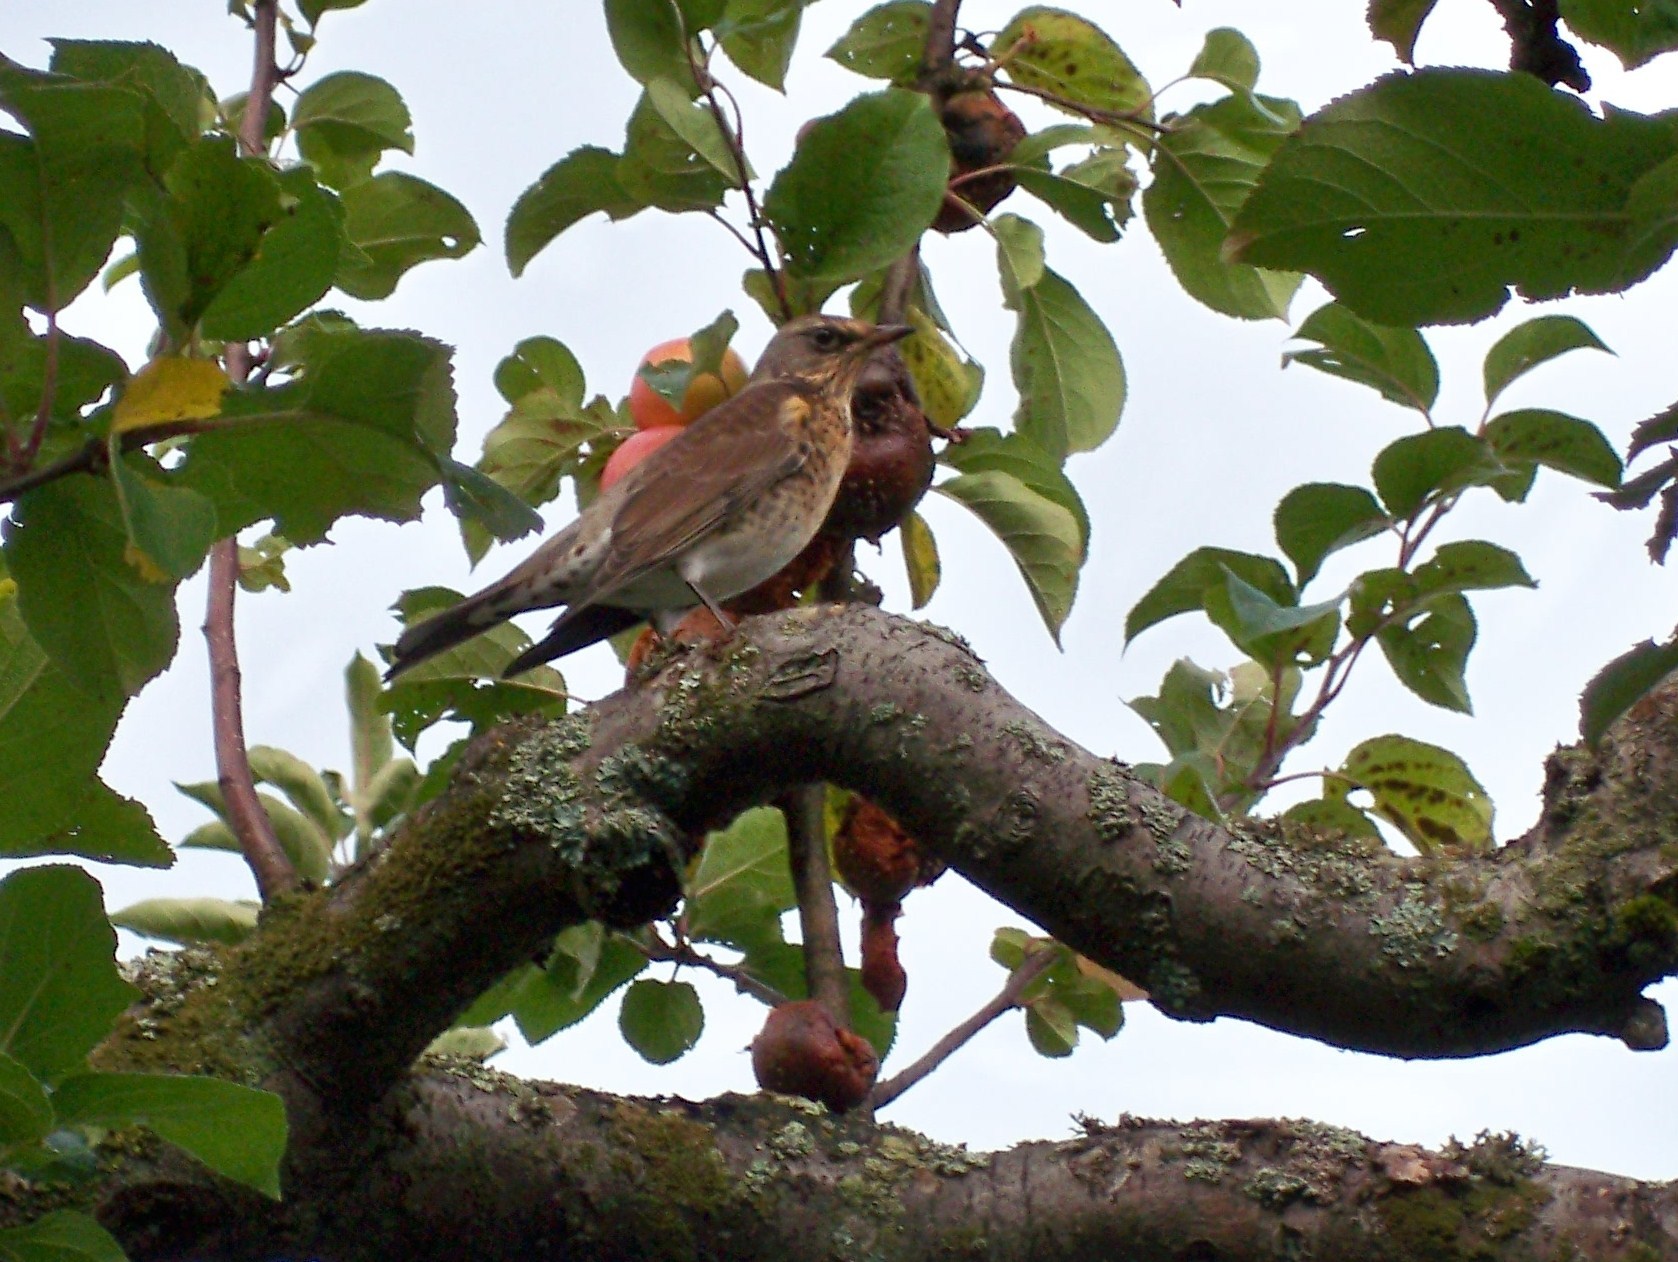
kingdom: Animalia
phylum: Chordata
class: Aves
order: Passeriformes
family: Turdidae
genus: Turdus
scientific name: Turdus pilaris
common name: Fieldfare
